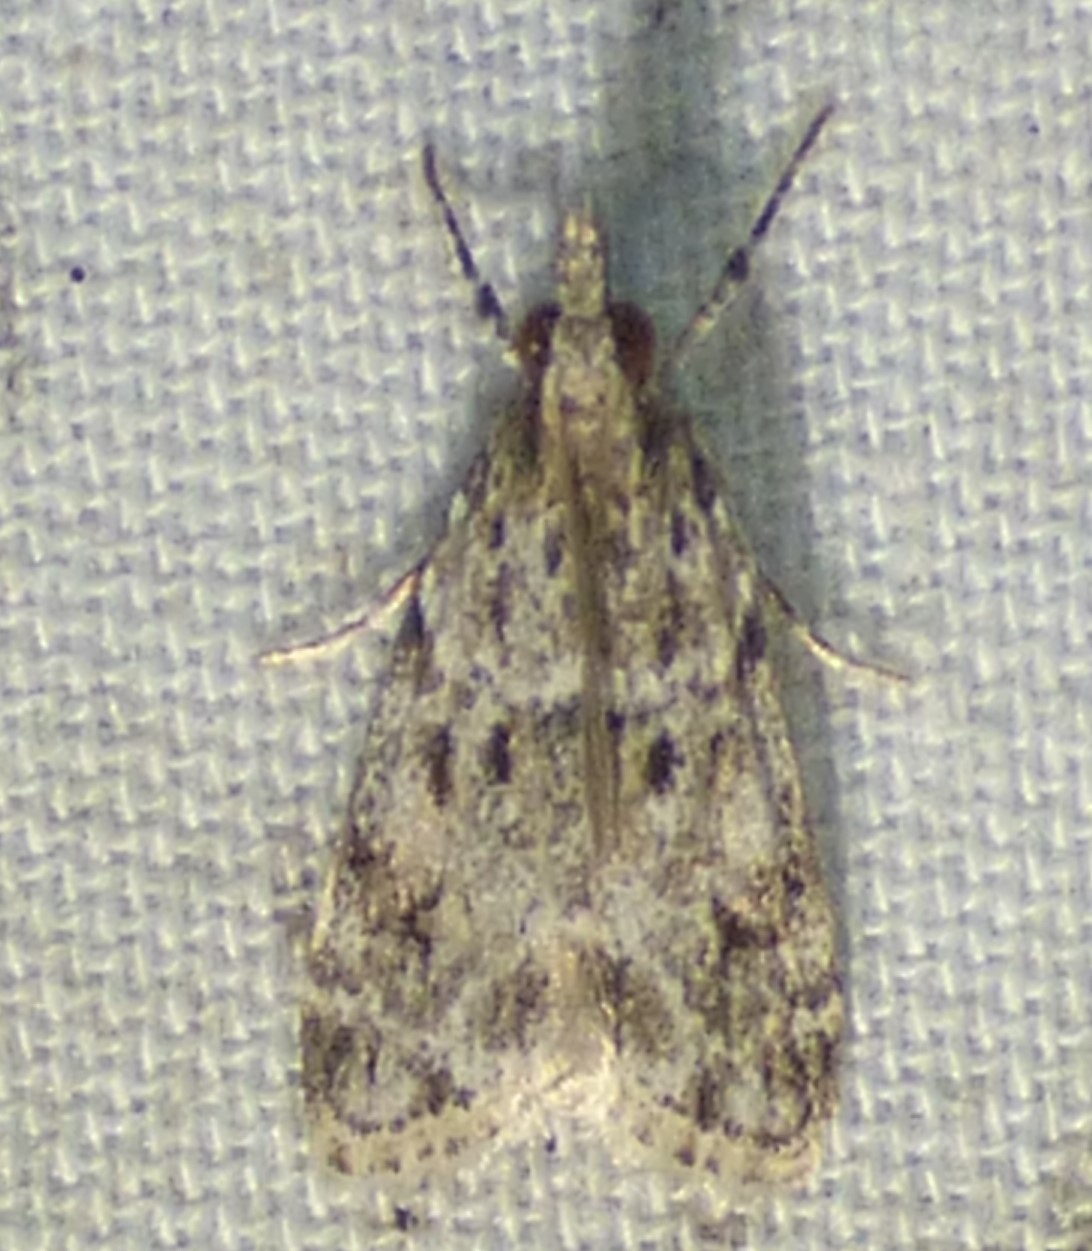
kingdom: Animalia
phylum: Arthropoda
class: Insecta
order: Lepidoptera
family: Crambidae
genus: Eudonia
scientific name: Eudonia heterosalis
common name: Mcdunnough's eudonia
